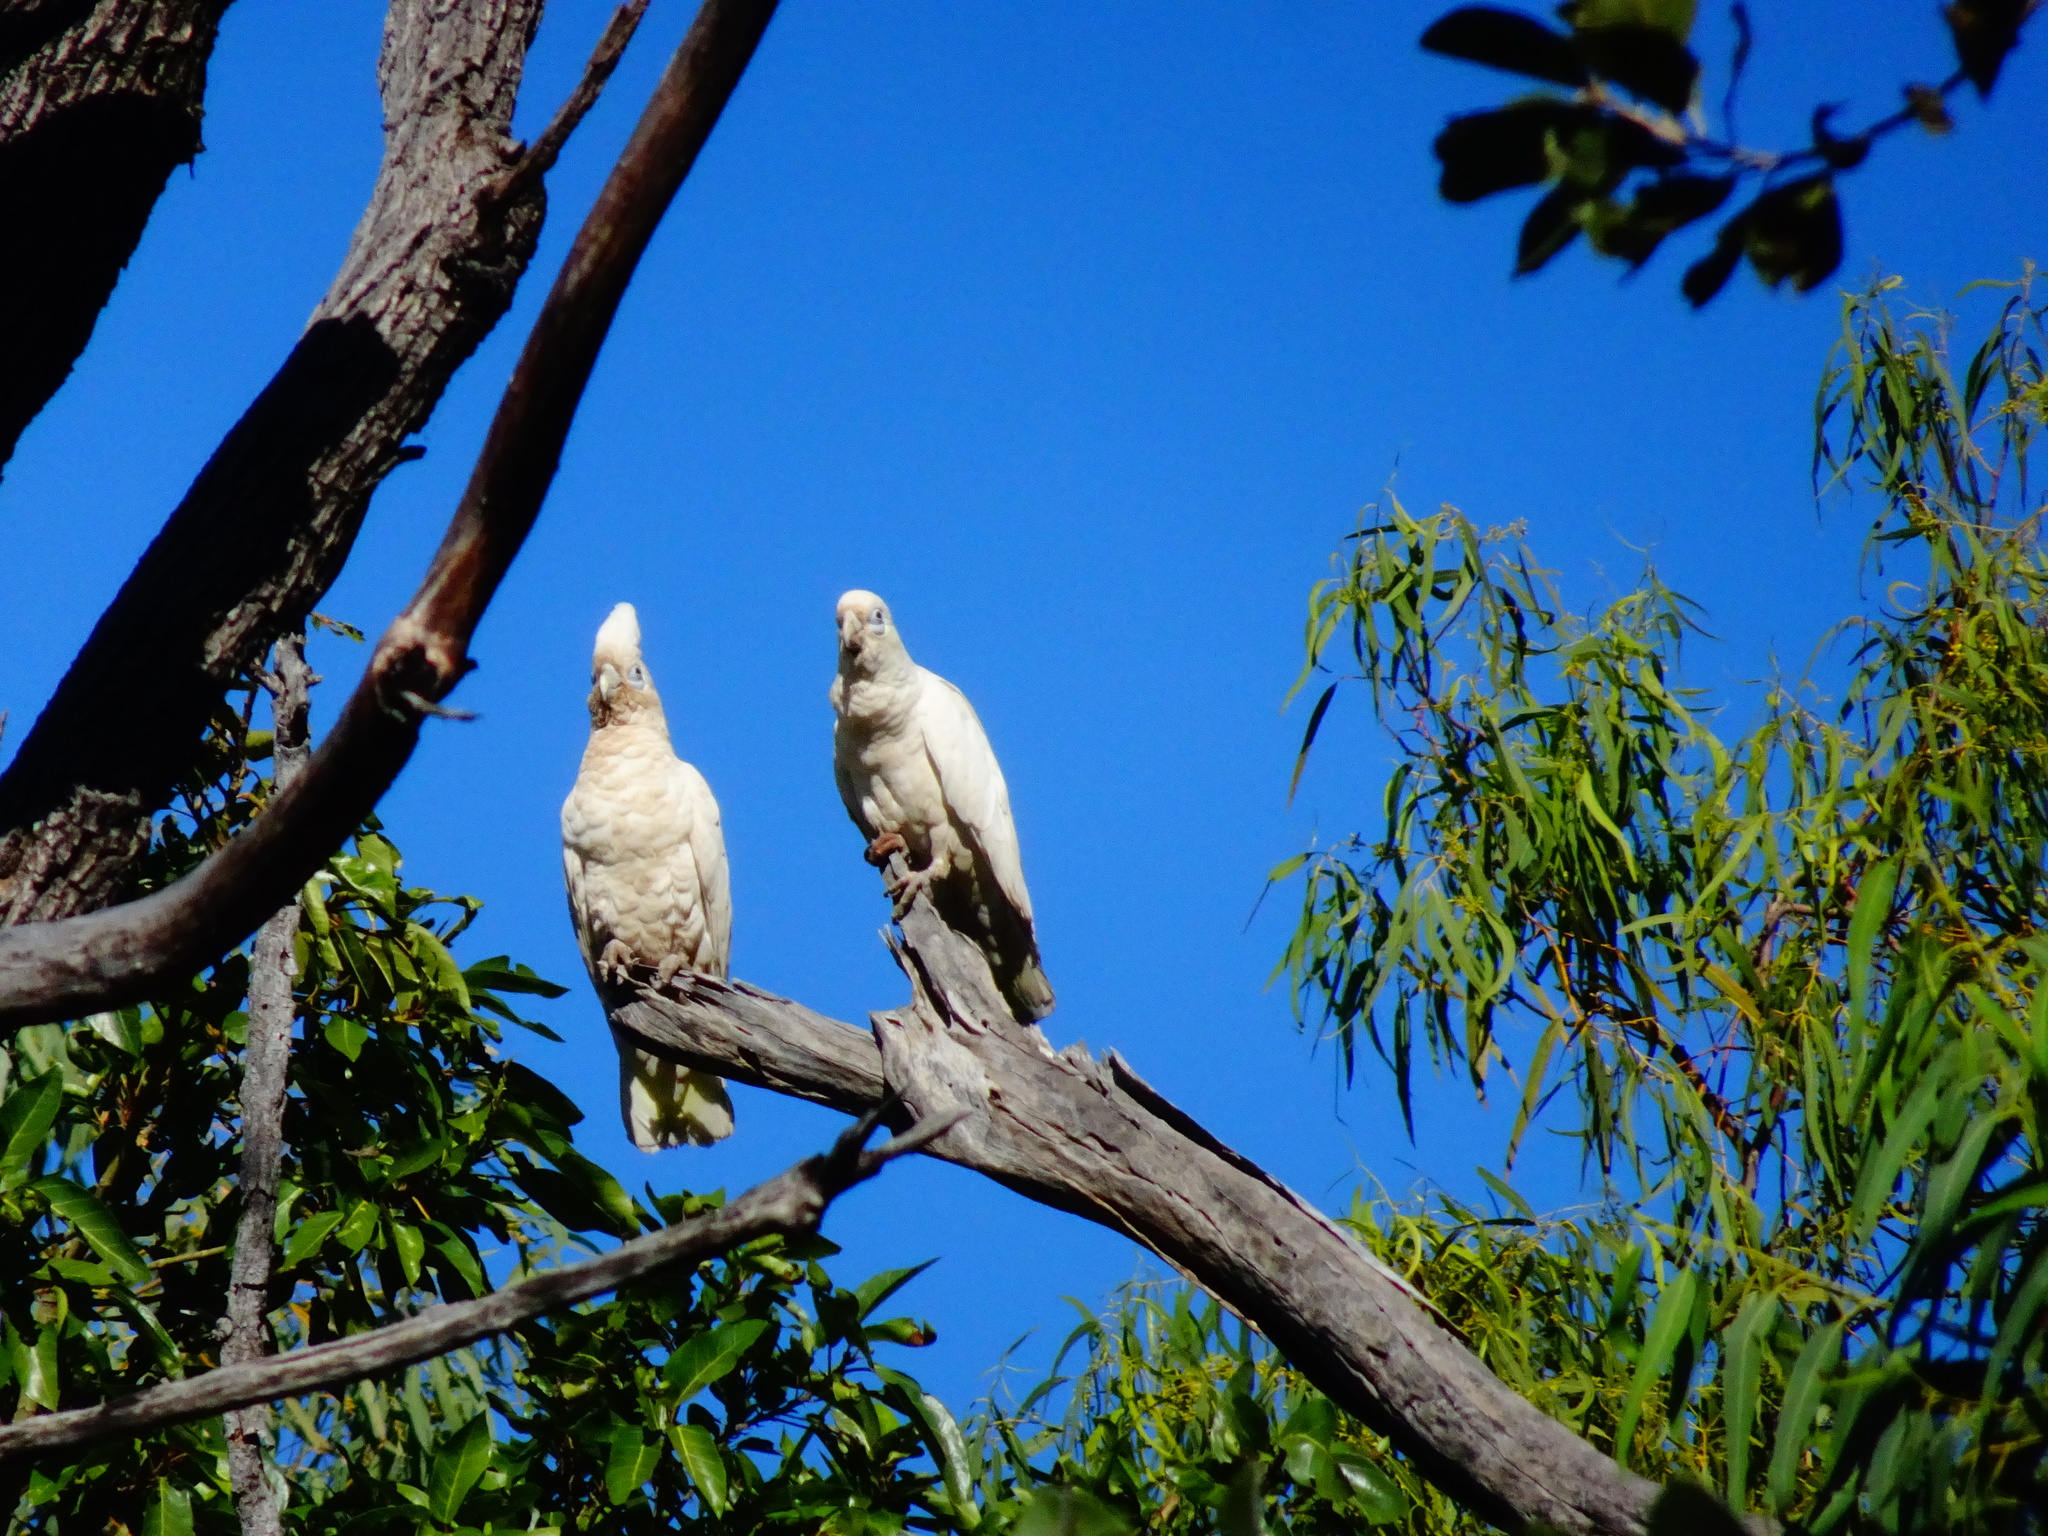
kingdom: Animalia
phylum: Chordata
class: Aves
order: Psittaciformes
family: Psittacidae
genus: Cacatua
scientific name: Cacatua sanguinea
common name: Little corella
